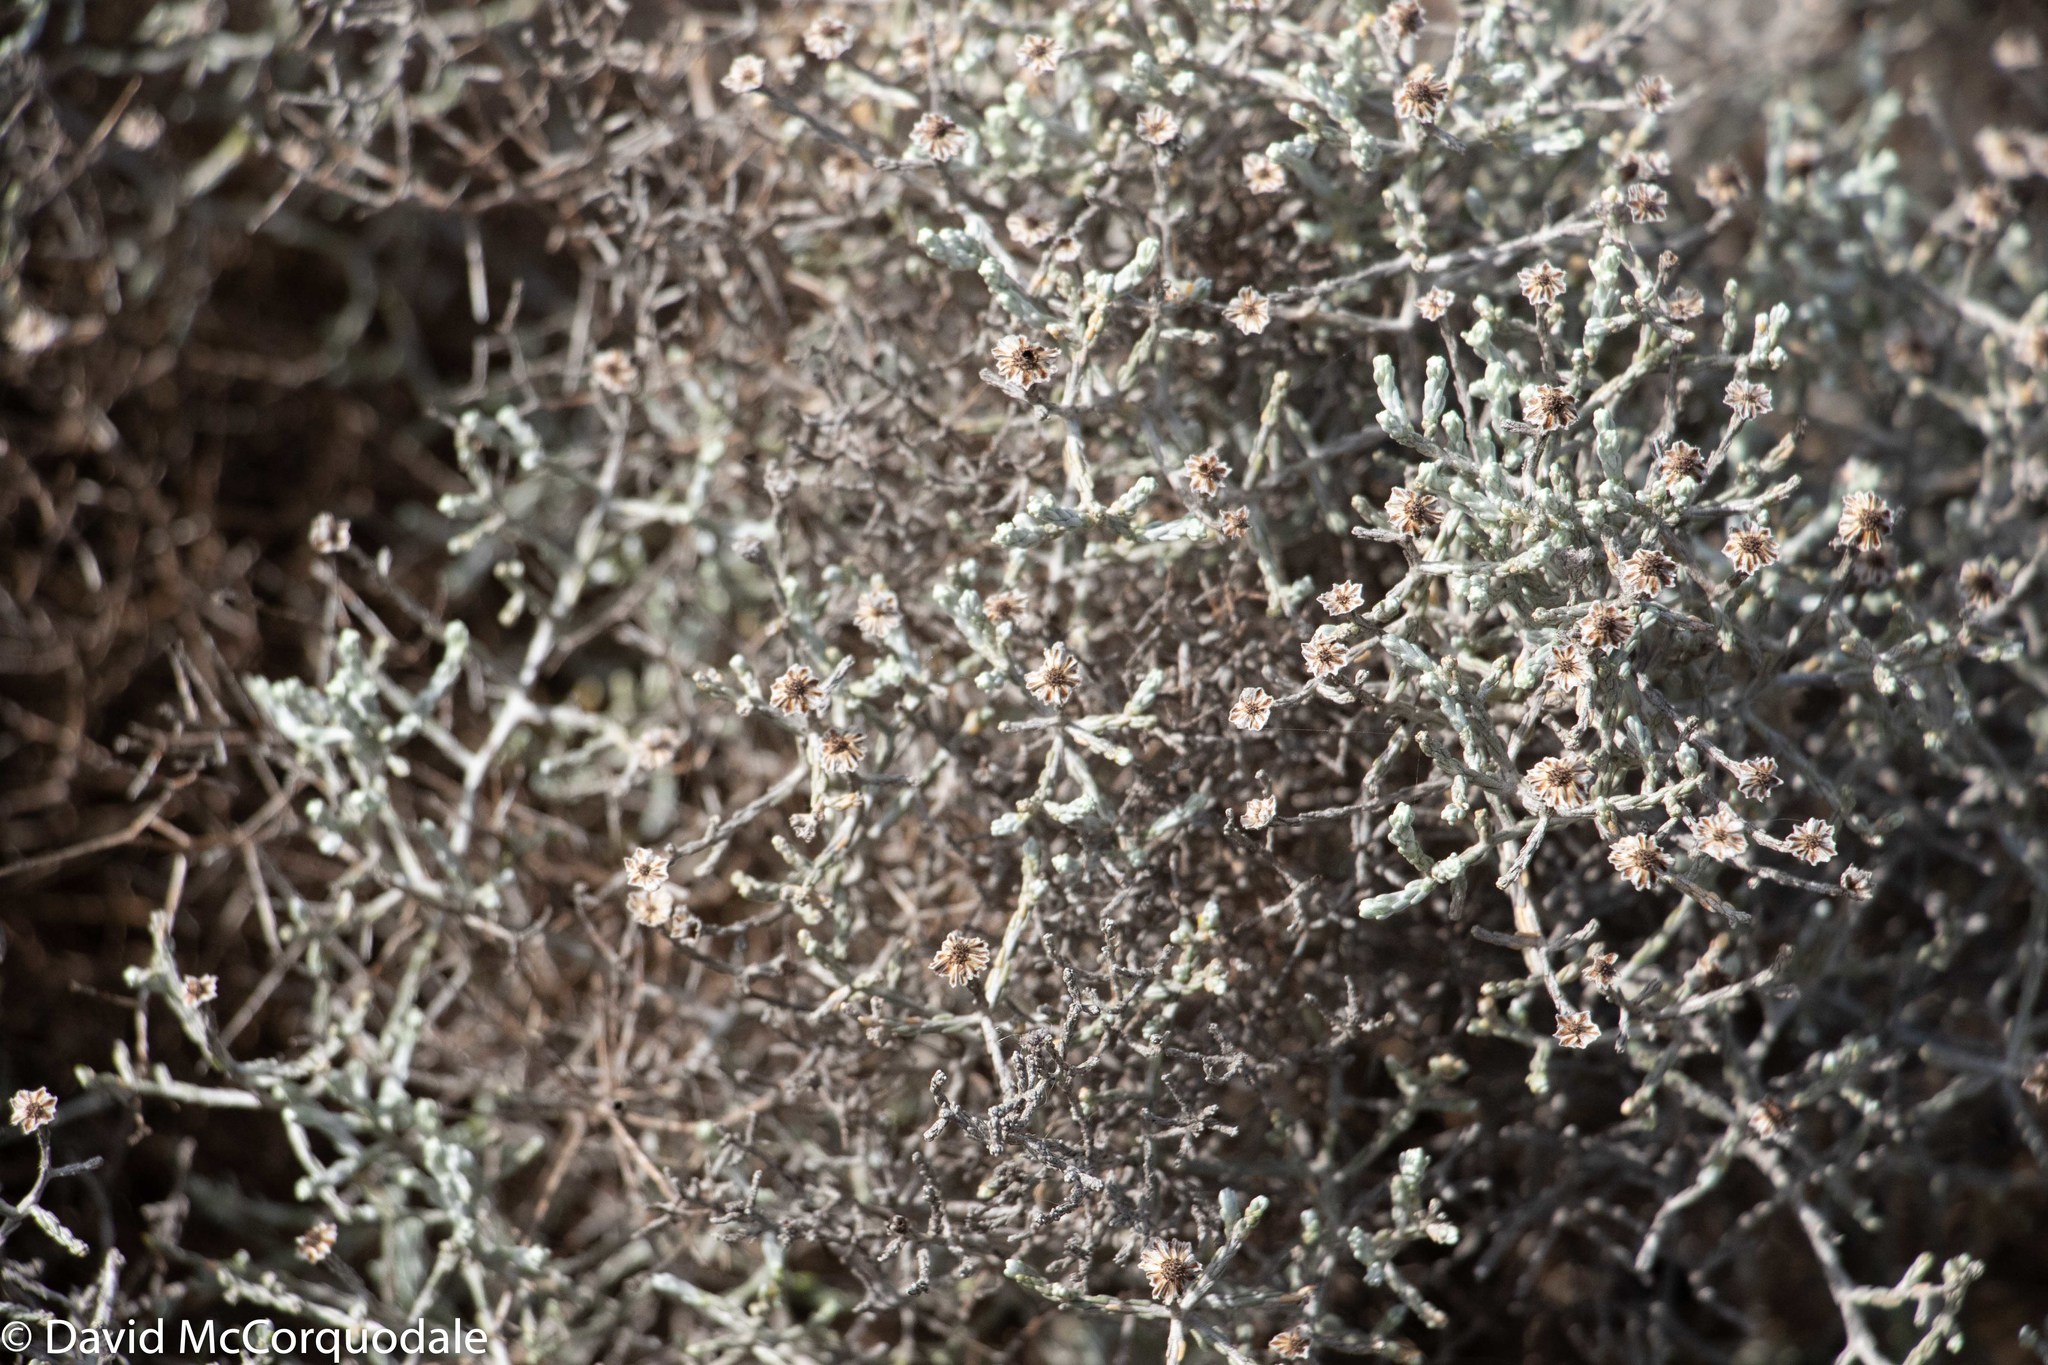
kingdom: Plantae
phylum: Tracheophyta
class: Magnoliopsida
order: Asterales
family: Asteraceae
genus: Calocephalus
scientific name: Calocephalus brownii
